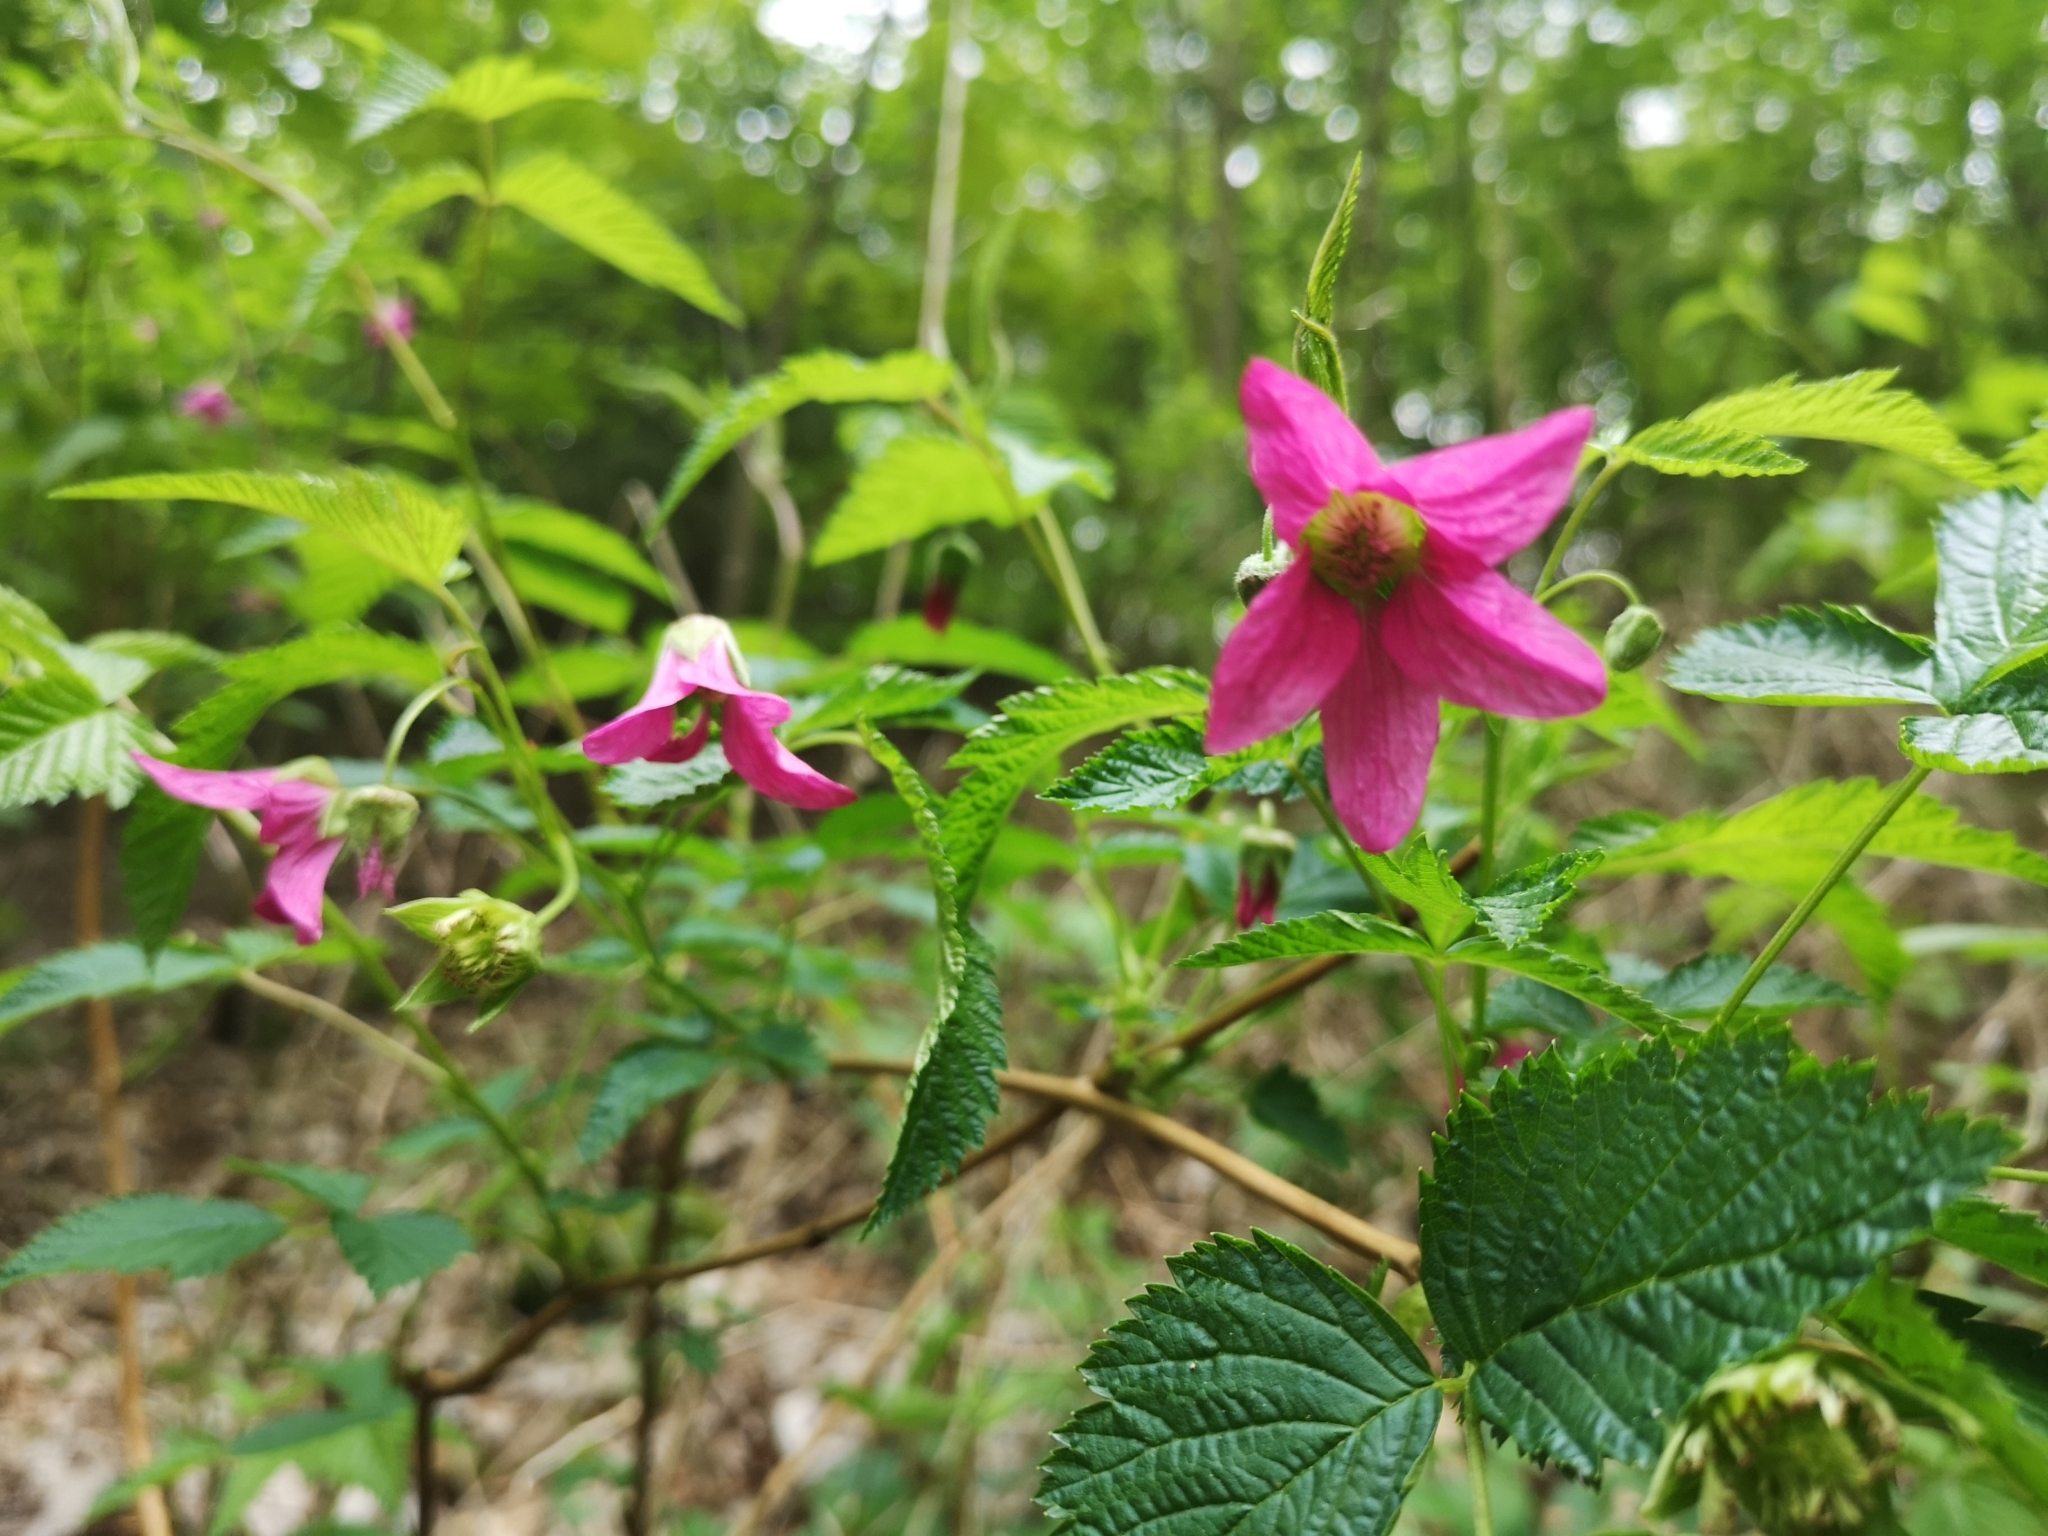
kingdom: Plantae
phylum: Tracheophyta
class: Magnoliopsida
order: Rosales
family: Rosaceae
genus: Rubus
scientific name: Rubus spectabilis
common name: Salmonberry
